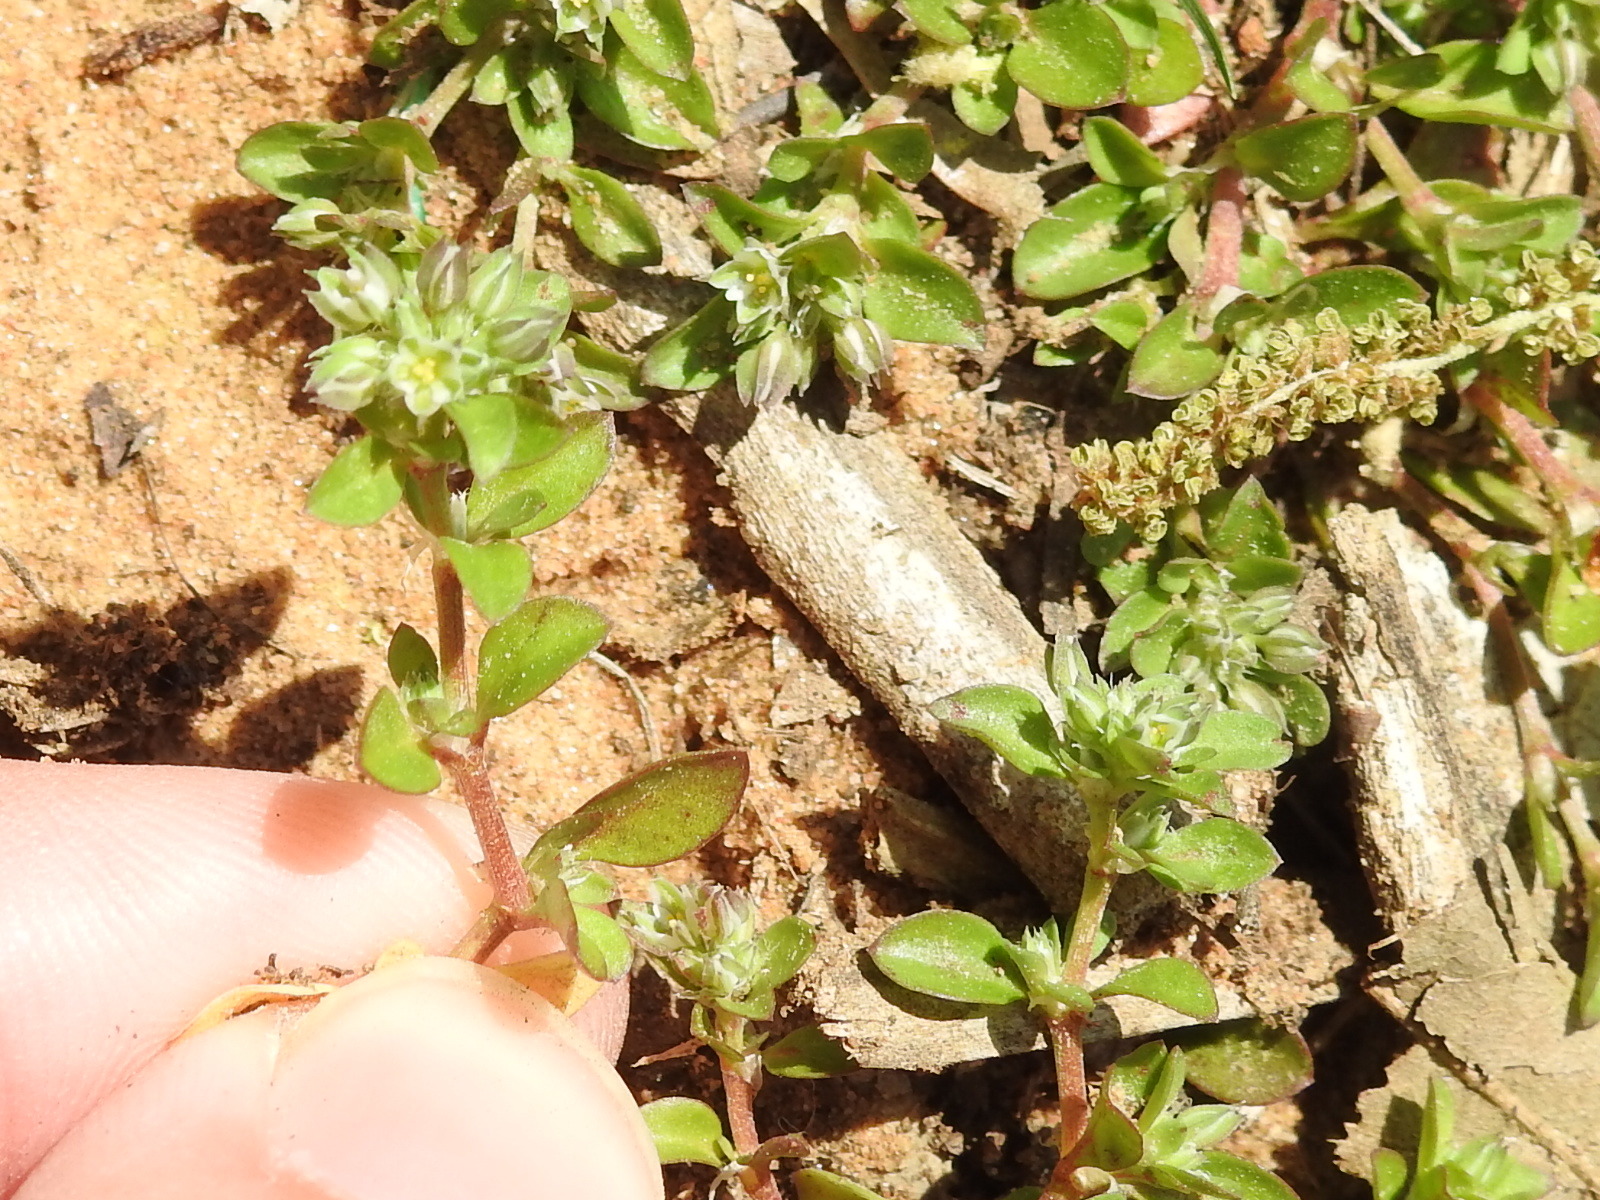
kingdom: Plantae
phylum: Tracheophyta
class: Magnoliopsida
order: Caryophyllales
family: Caryophyllaceae
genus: Polycarpon
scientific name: Polycarpon tetraphyllum
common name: Four-leaved all-seed
